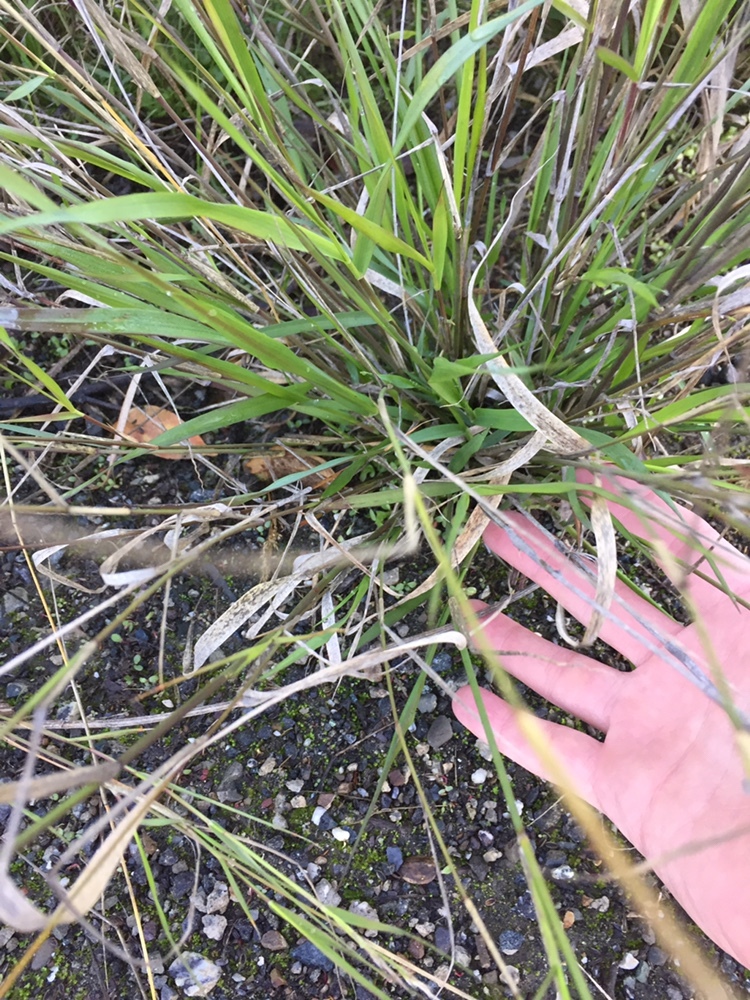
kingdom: Plantae
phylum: Tracheophyta
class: Liliopsida
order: Poales
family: Poaceae
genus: Oloptum
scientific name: Oloptum miliaceum
